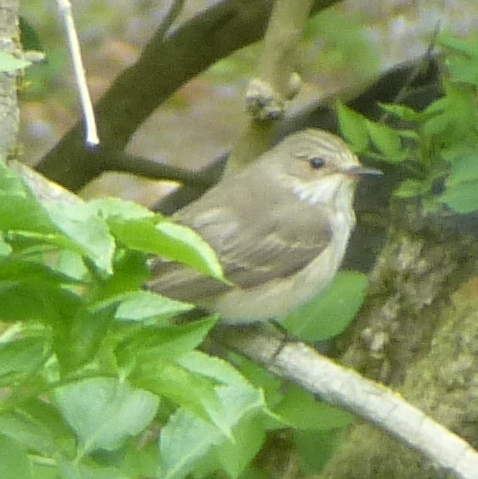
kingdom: Animalia
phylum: Chordata
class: Aves
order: Passeriformes
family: Muscicapidae
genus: Muscicapa
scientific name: Muscicapa striata
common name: Spotted flycatcher
